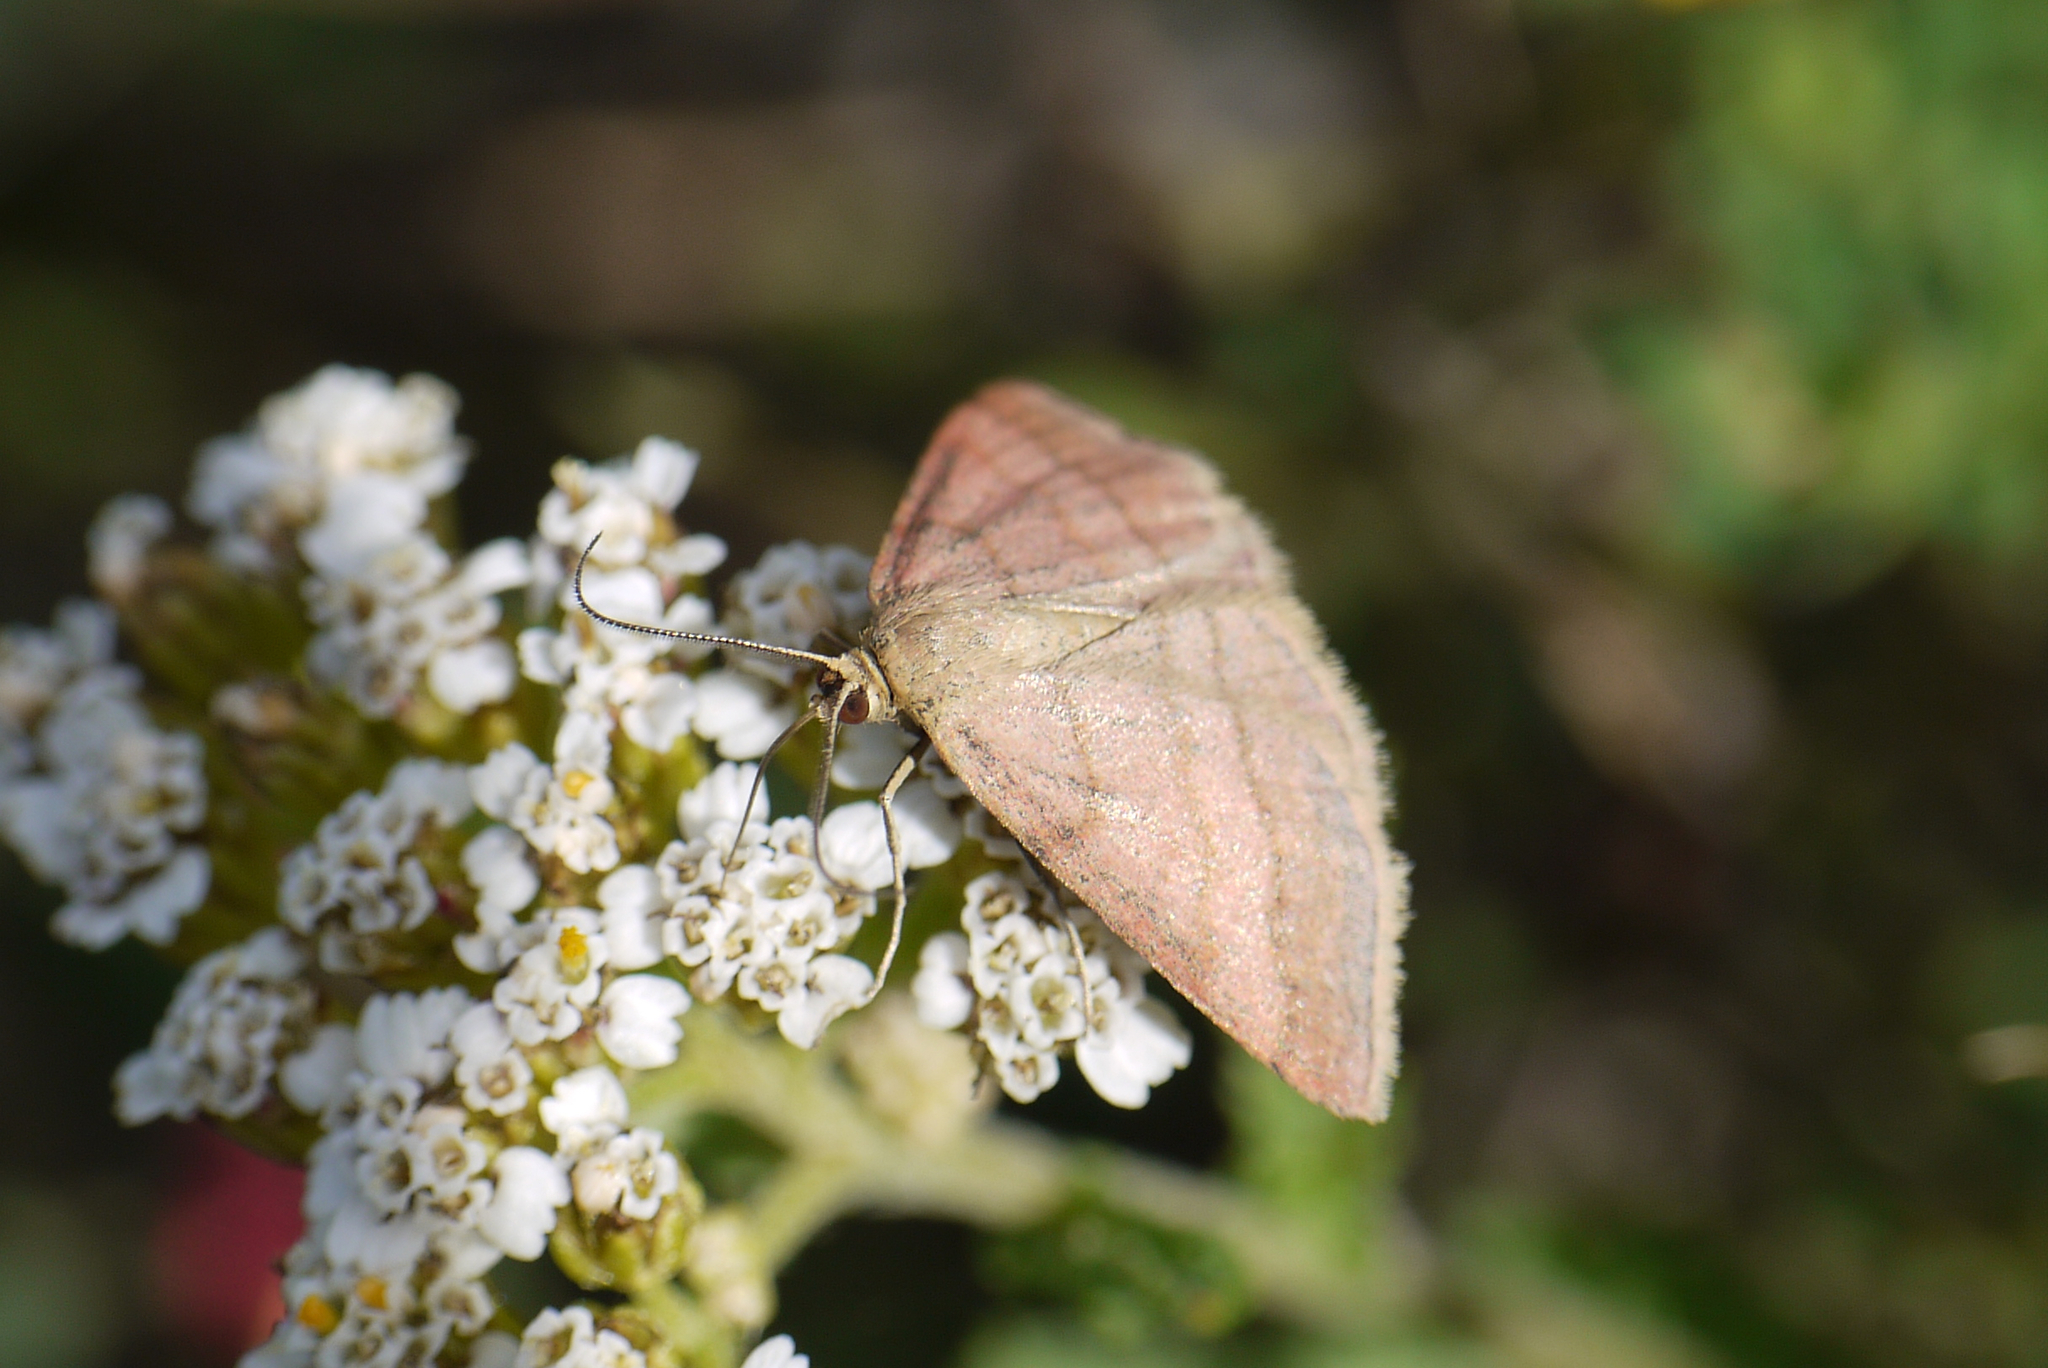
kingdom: Animalia
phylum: Arthropoda
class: Insecta
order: Lepidoptera
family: Geometridae
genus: Scopula
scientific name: Scopula rubiginata
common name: Tawny wave
